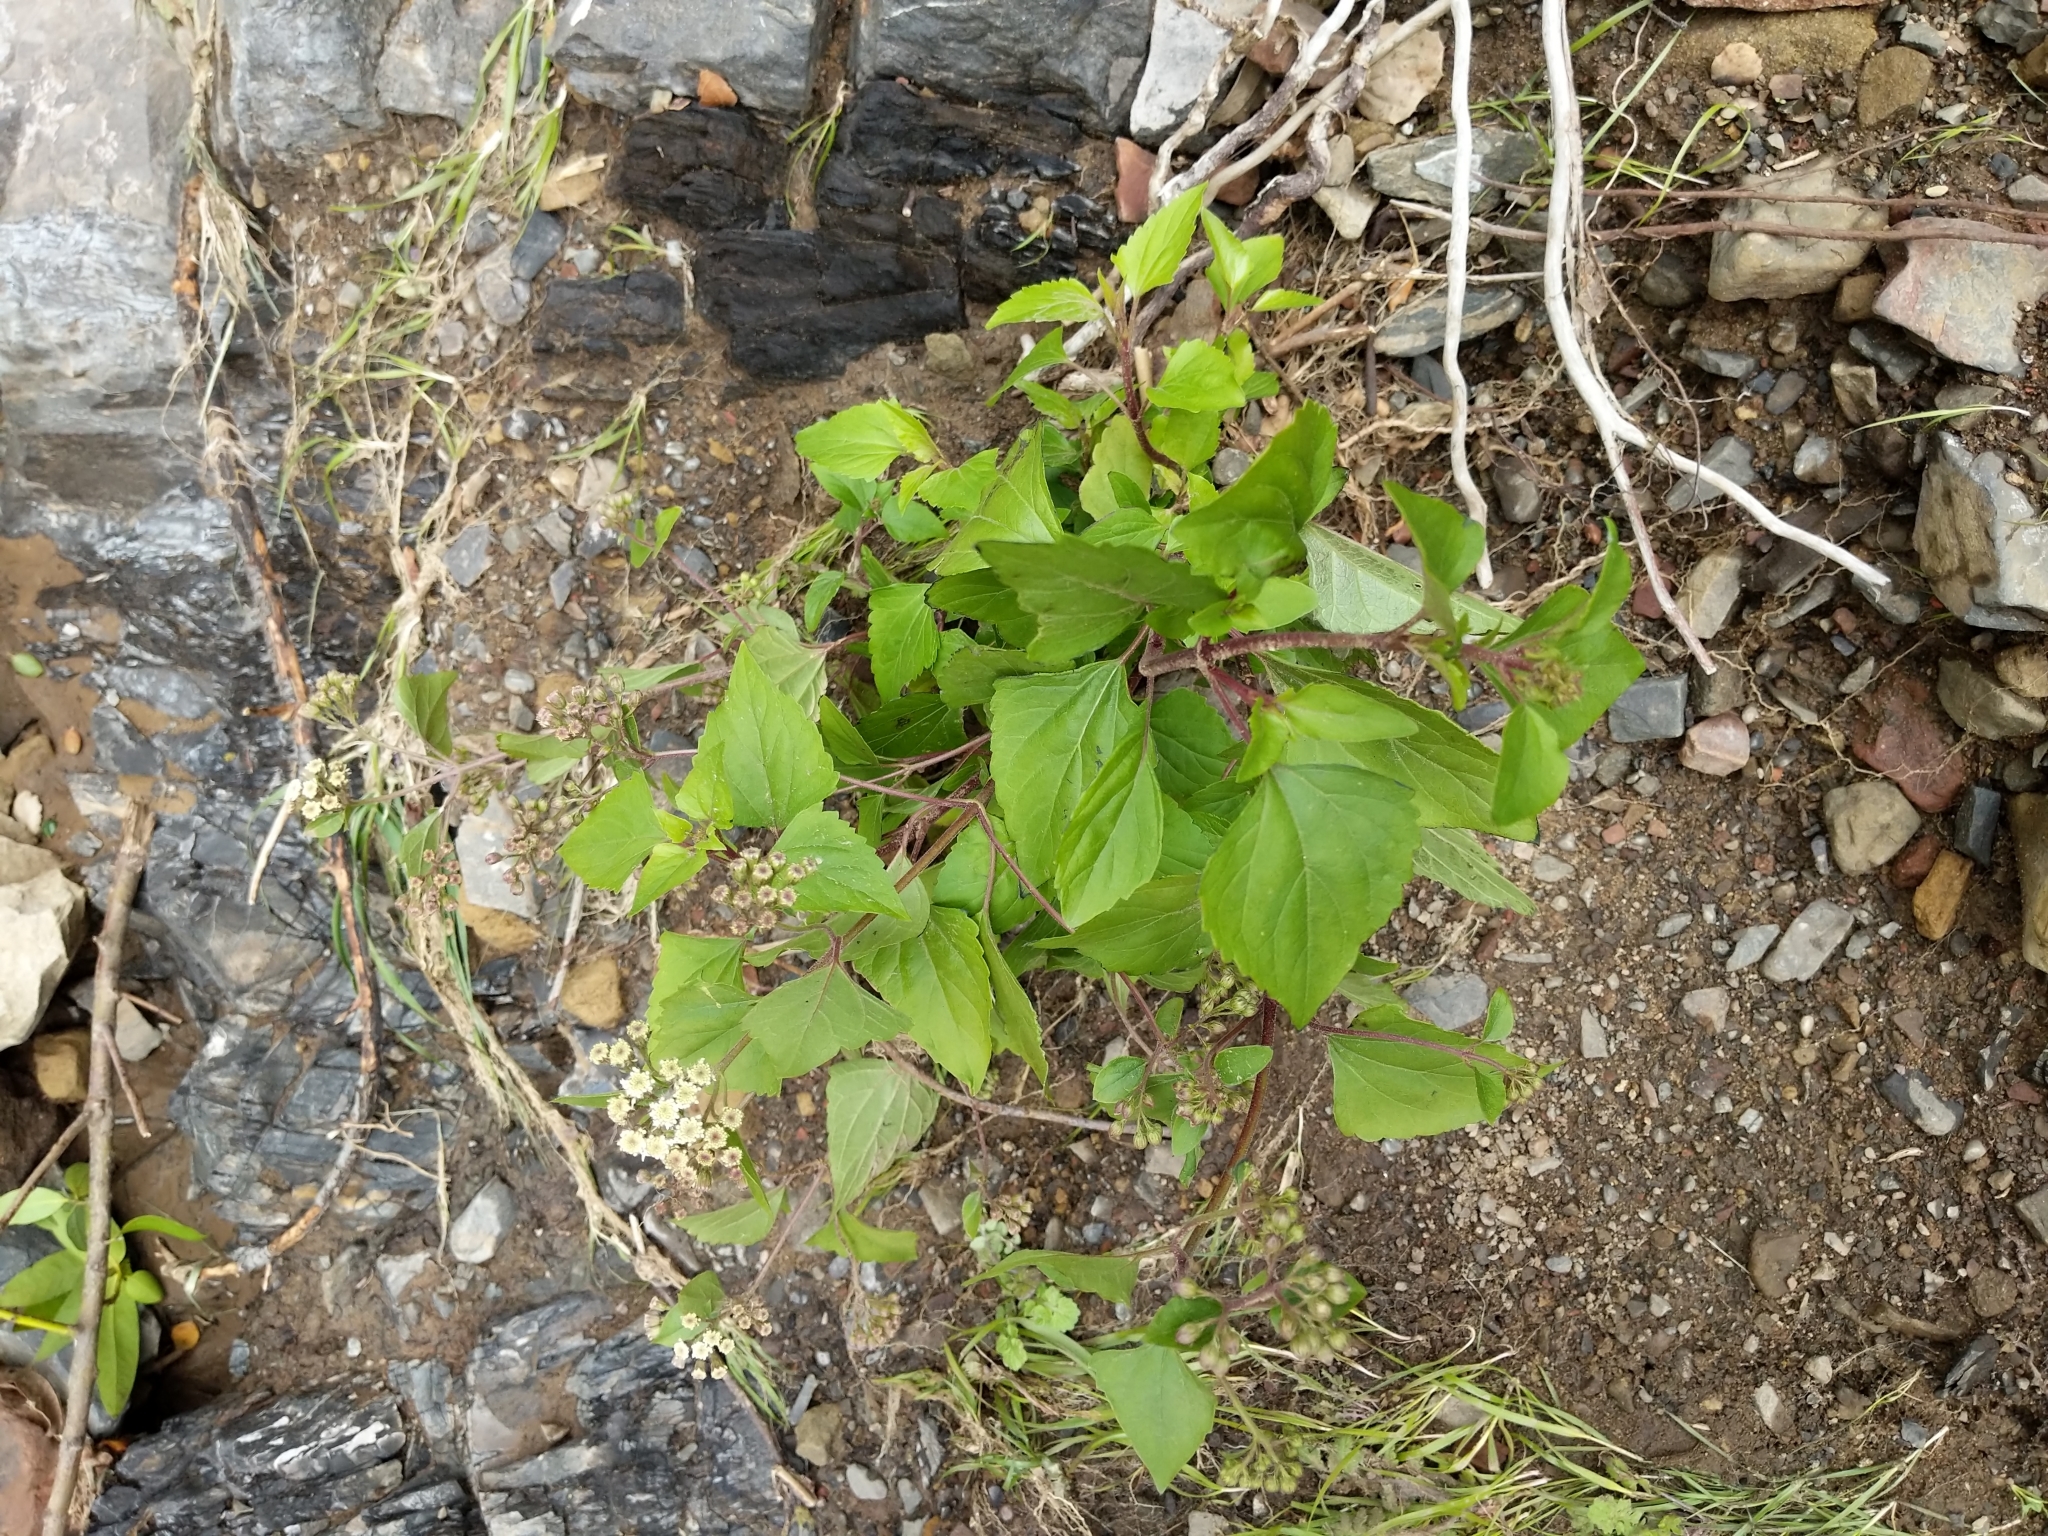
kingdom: Plantae
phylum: Tracheophyta
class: Magnoliopsida
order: Asterales
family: Asteraceae
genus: Ageratina
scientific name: Ageratina adenophora
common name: Sticky snakeroot
